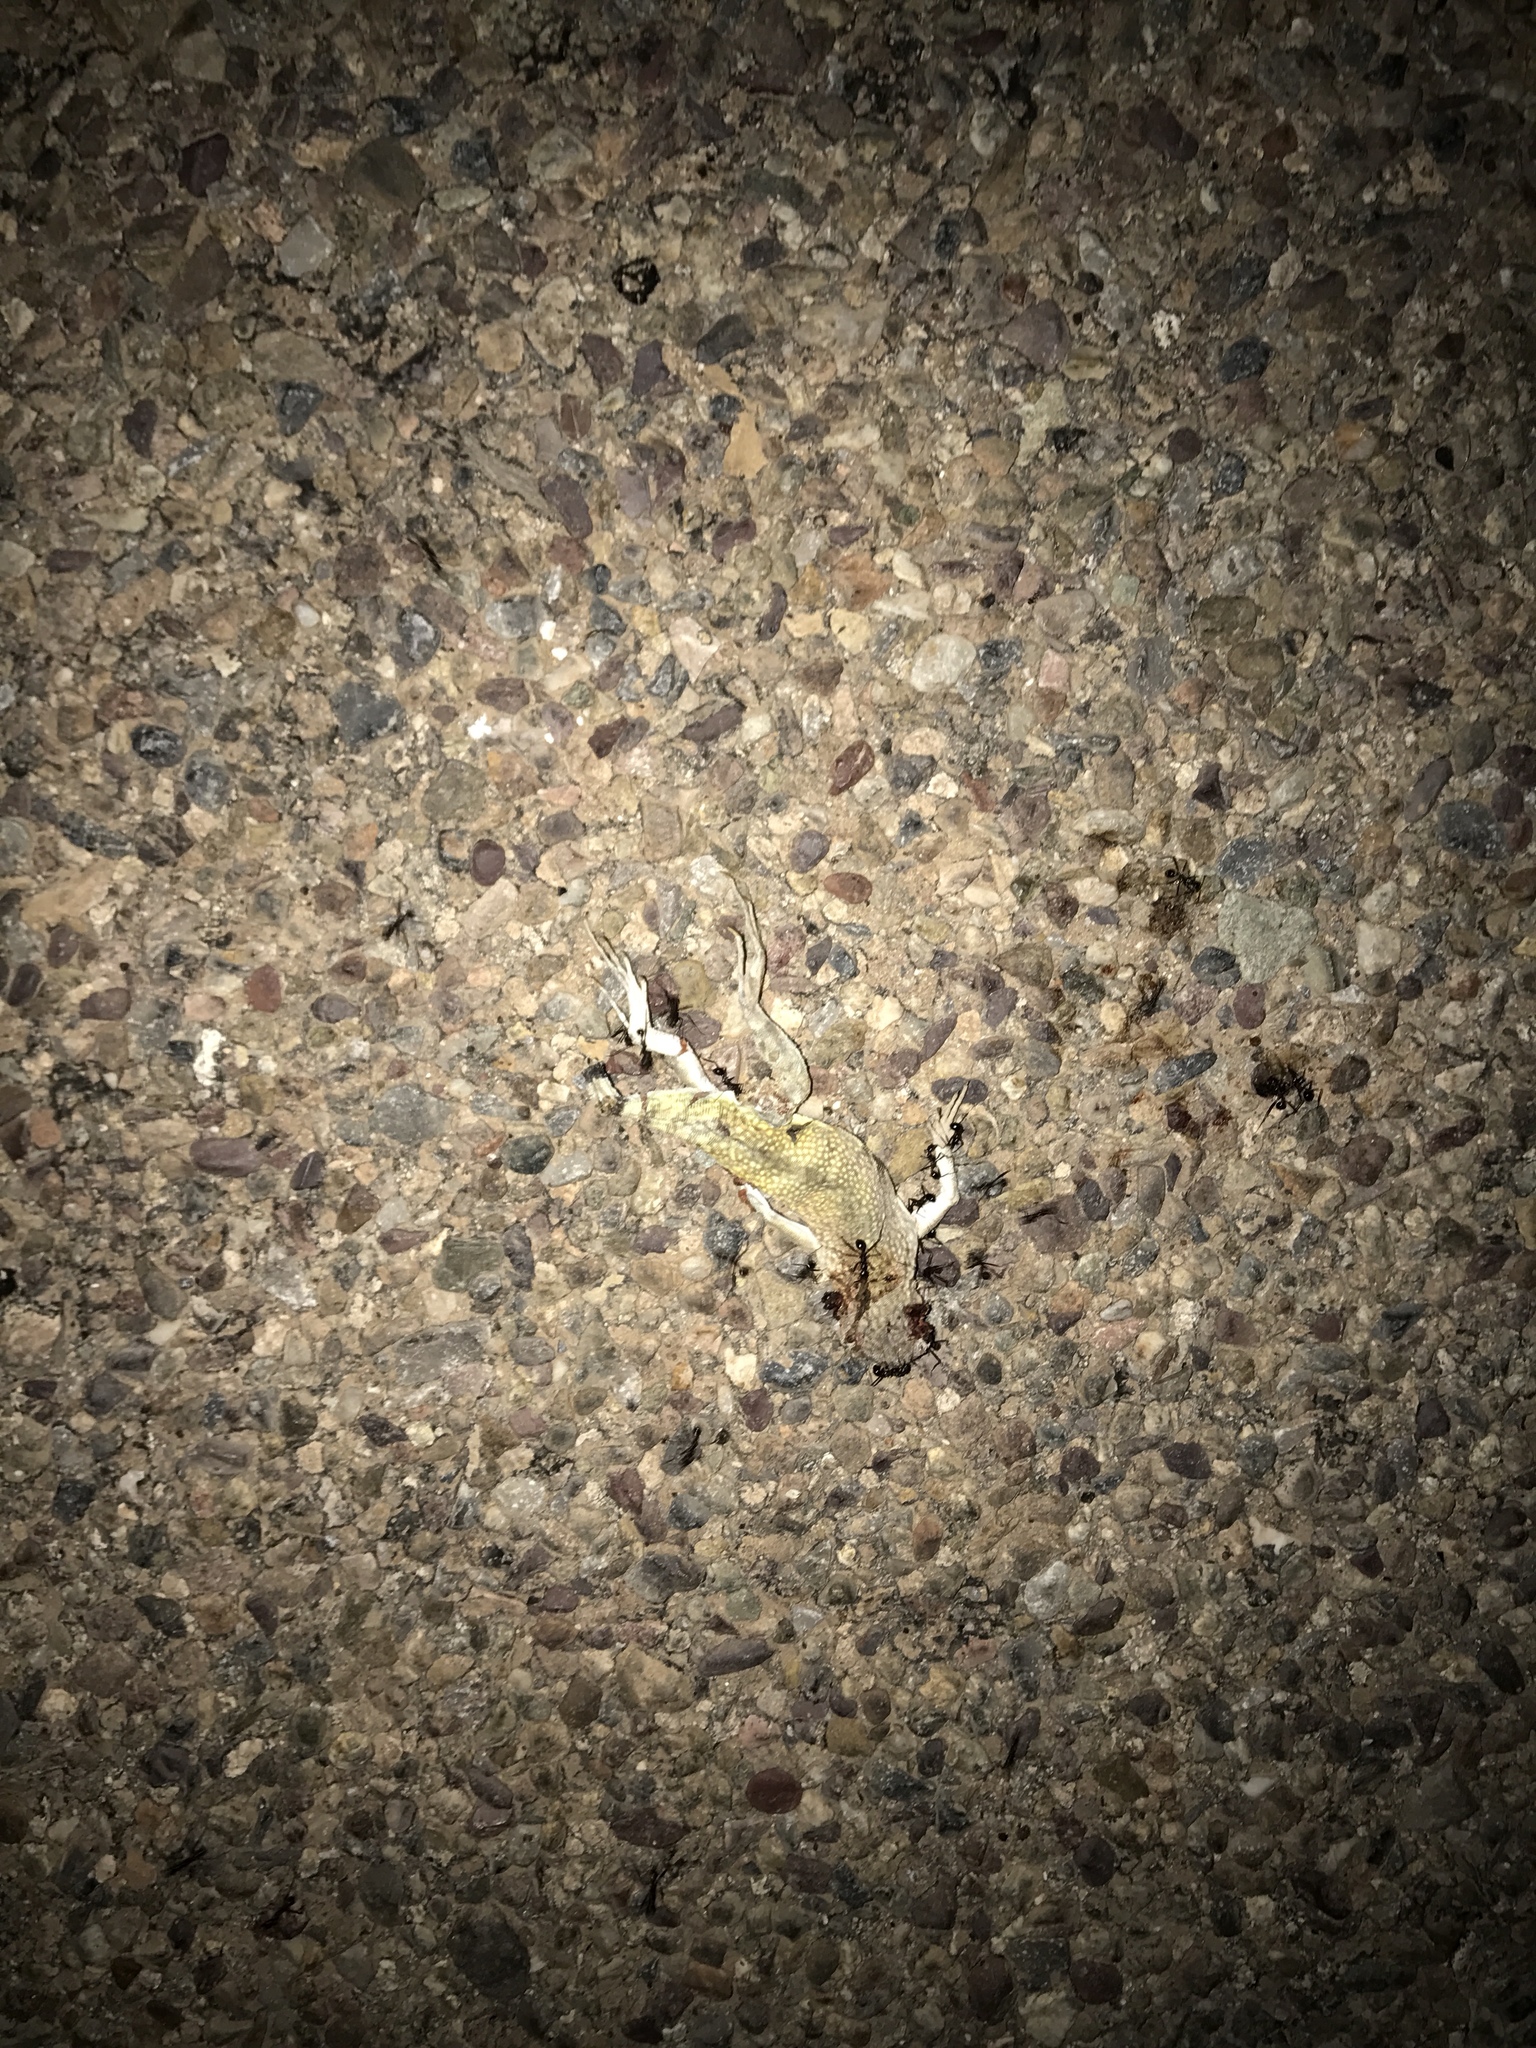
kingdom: Animalia
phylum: Chordata
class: Squamata
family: Phrynosomatidae
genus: Callisaurus
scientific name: Callisaurus draconoides
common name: Zebra-tailed lizard
